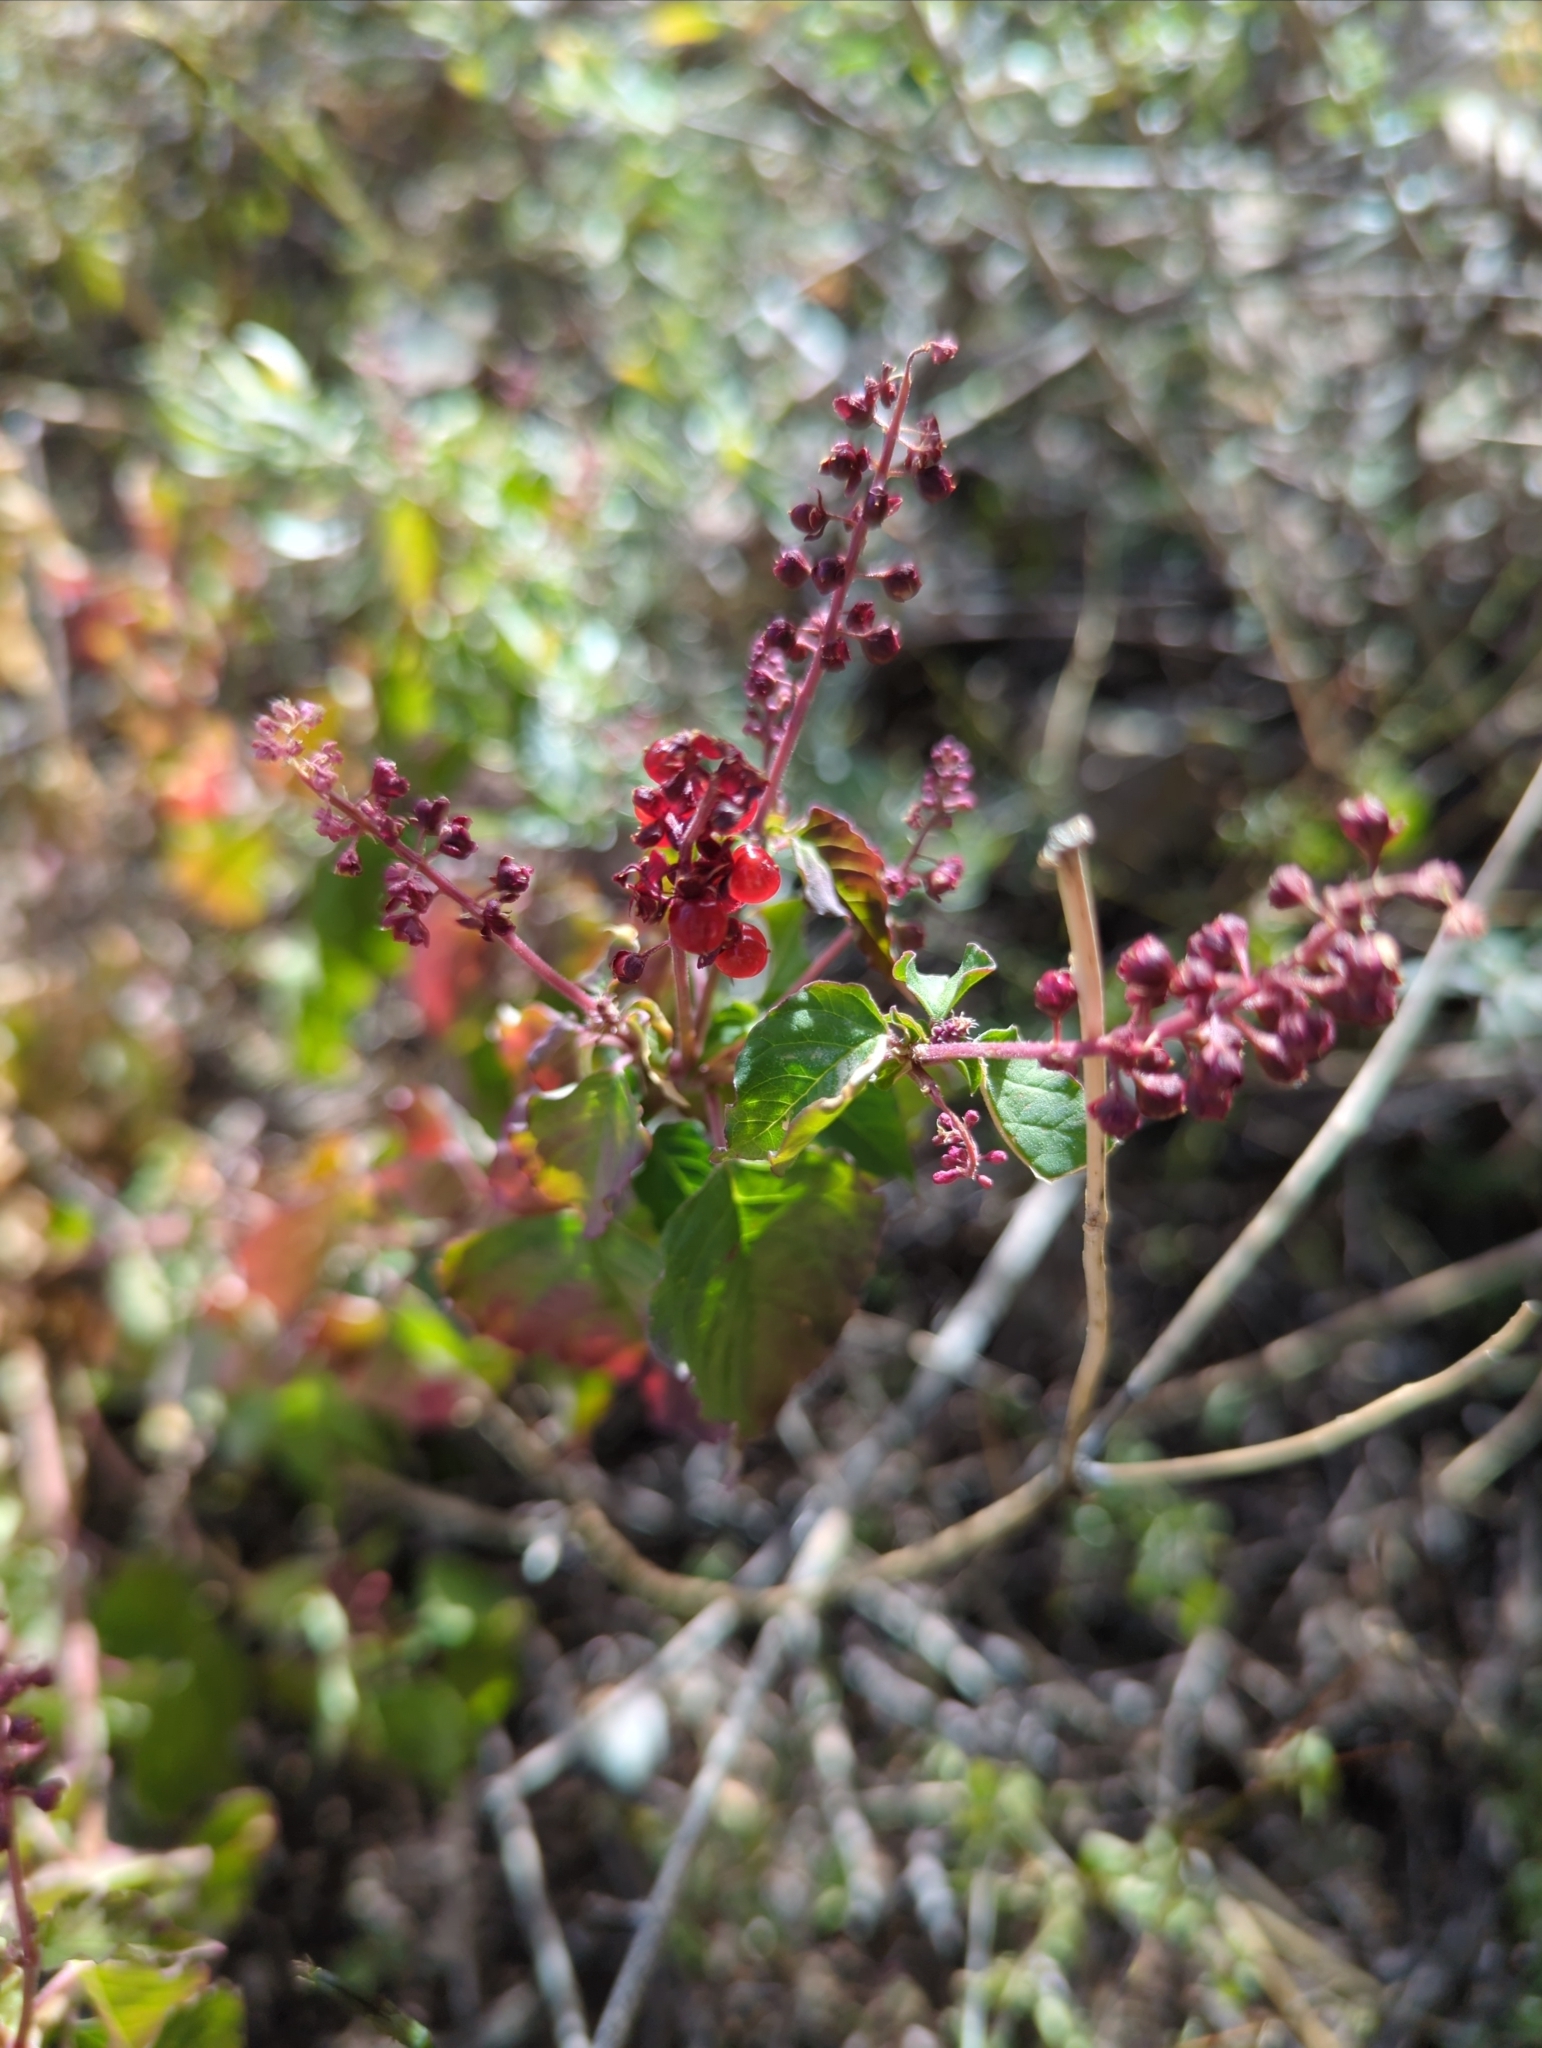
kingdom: Plantae
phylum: Tracheophyta
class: Magnoliopsida
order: Caryophyllales
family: Phytolaccaceae
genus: Rivina
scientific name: Rivina humilis
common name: Rougeplant
